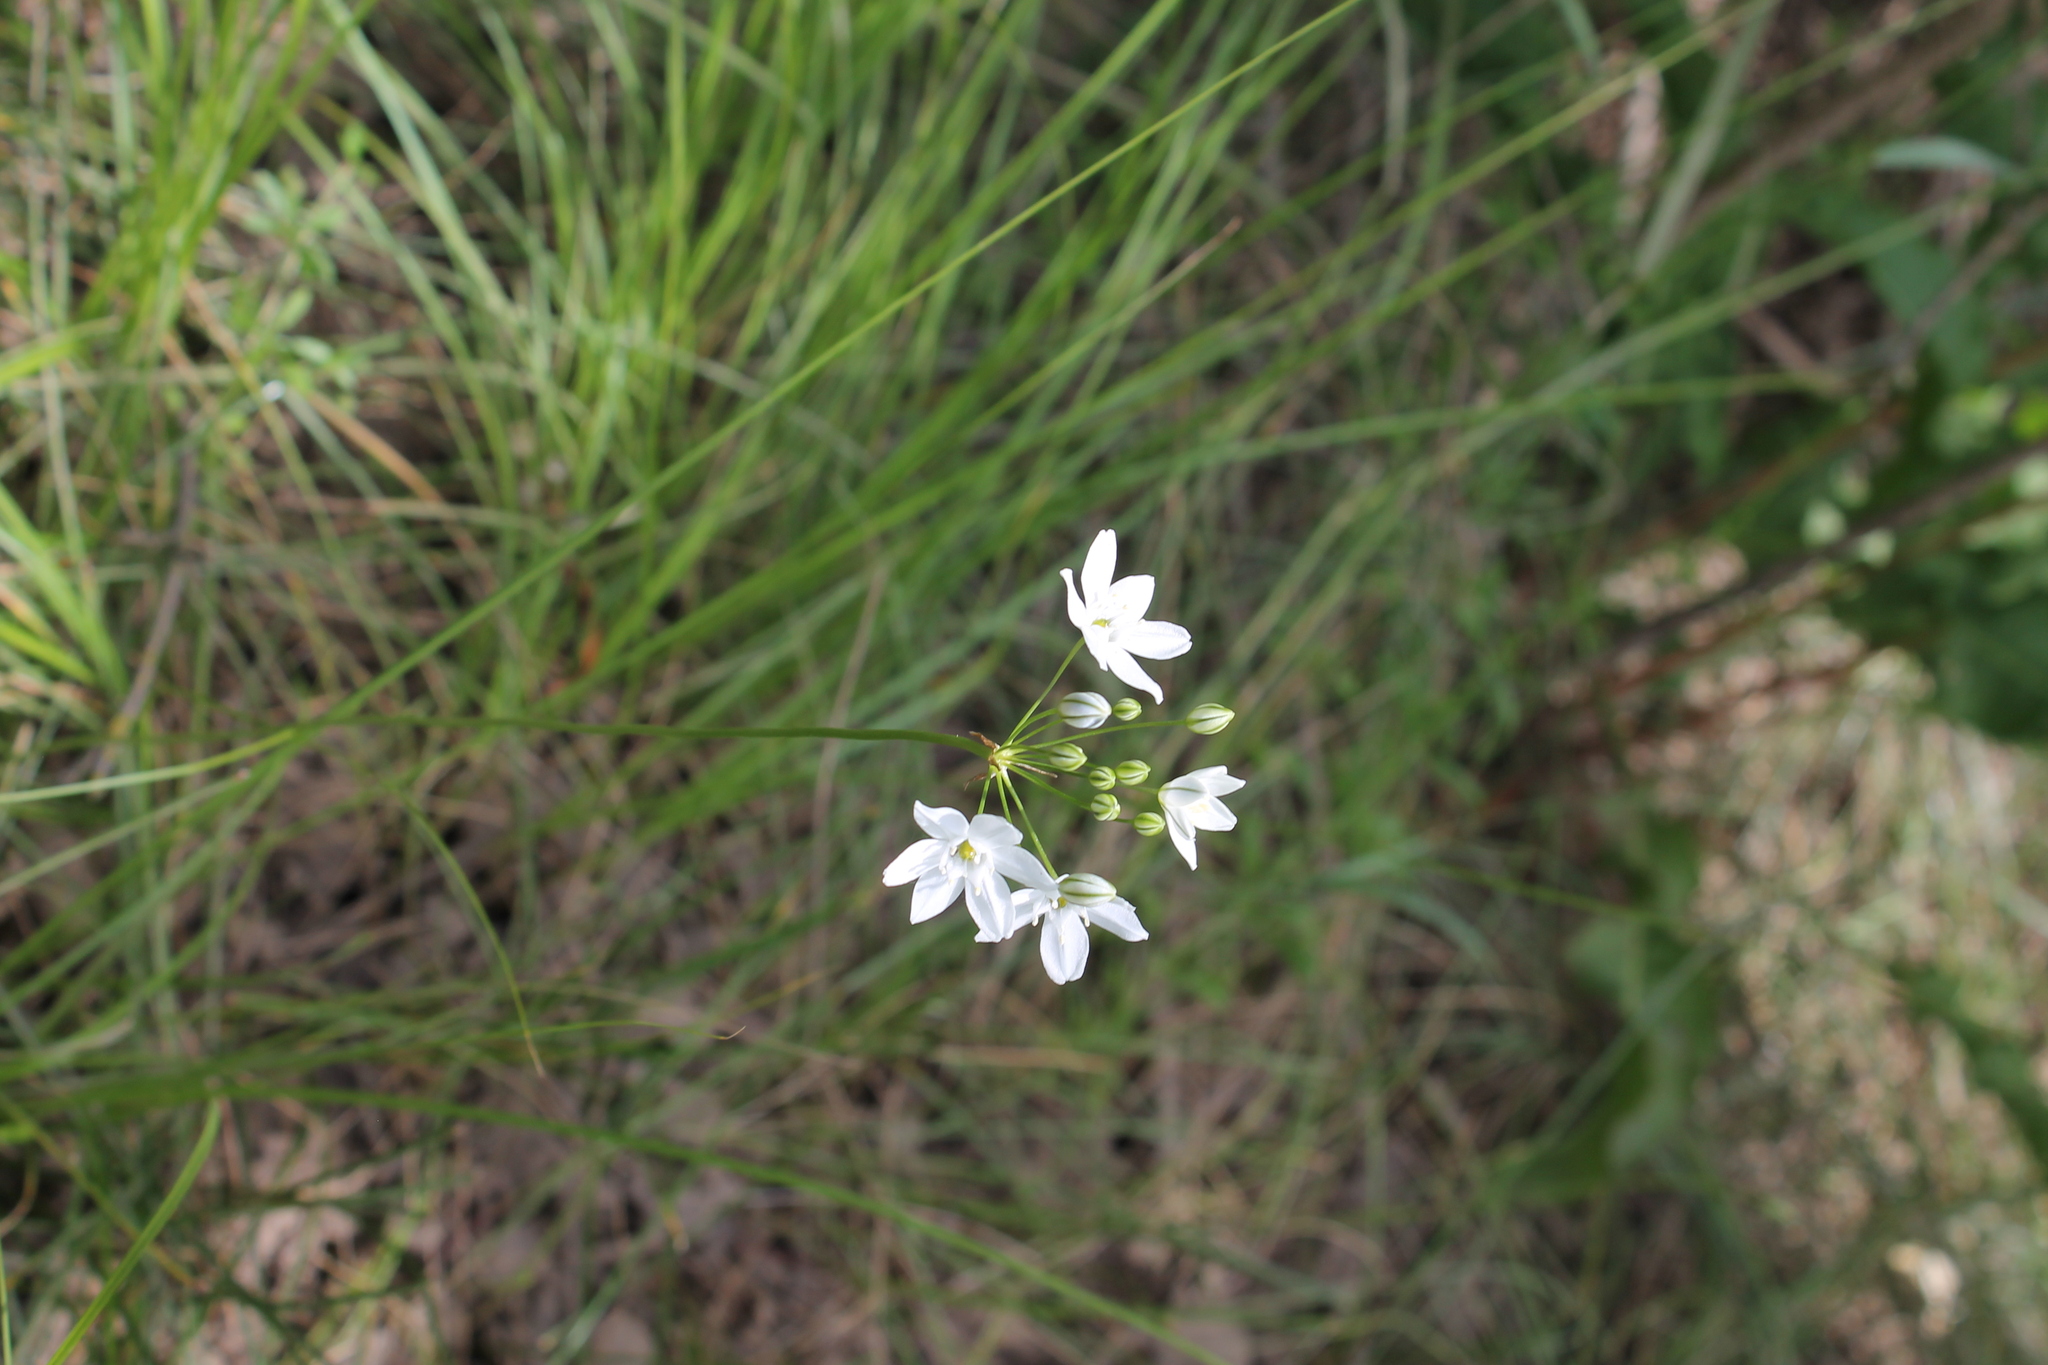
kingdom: Plantae
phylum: Tracheophyta
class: Liliopsida
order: Asparagales
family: Asparagaceae
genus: Triteleia
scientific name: Triteleia hyacinthina
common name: White brodiaea
